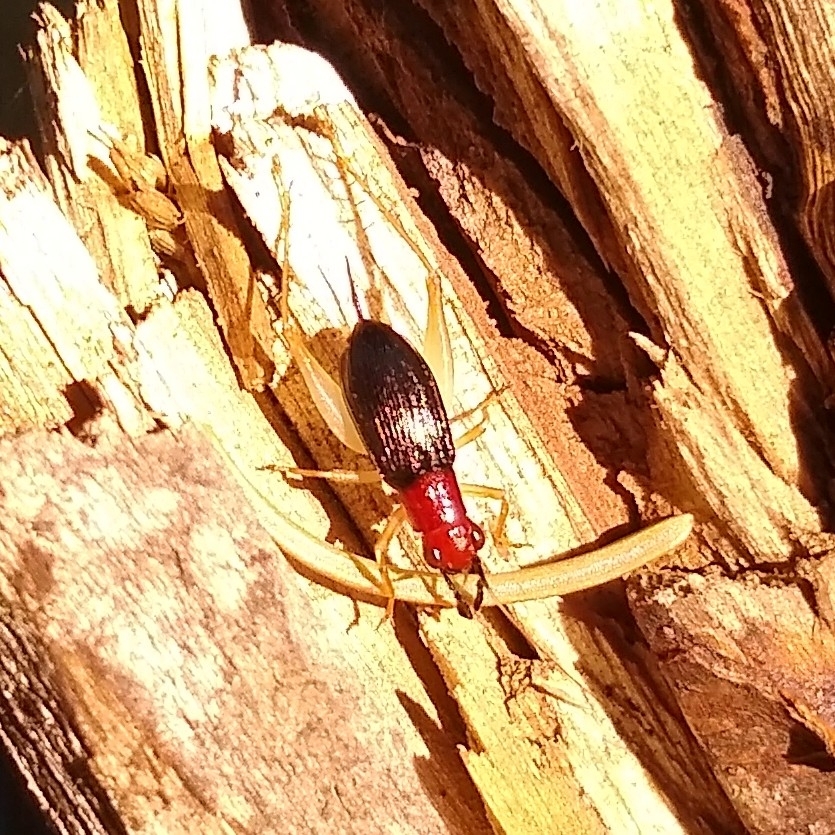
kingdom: Animalia
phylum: Arthropoda
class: Insecta
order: Orthoptera
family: Trigonidiidae
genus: Phyllopalpus
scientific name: Phyllopalpus pulchellus
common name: Handsome trig
